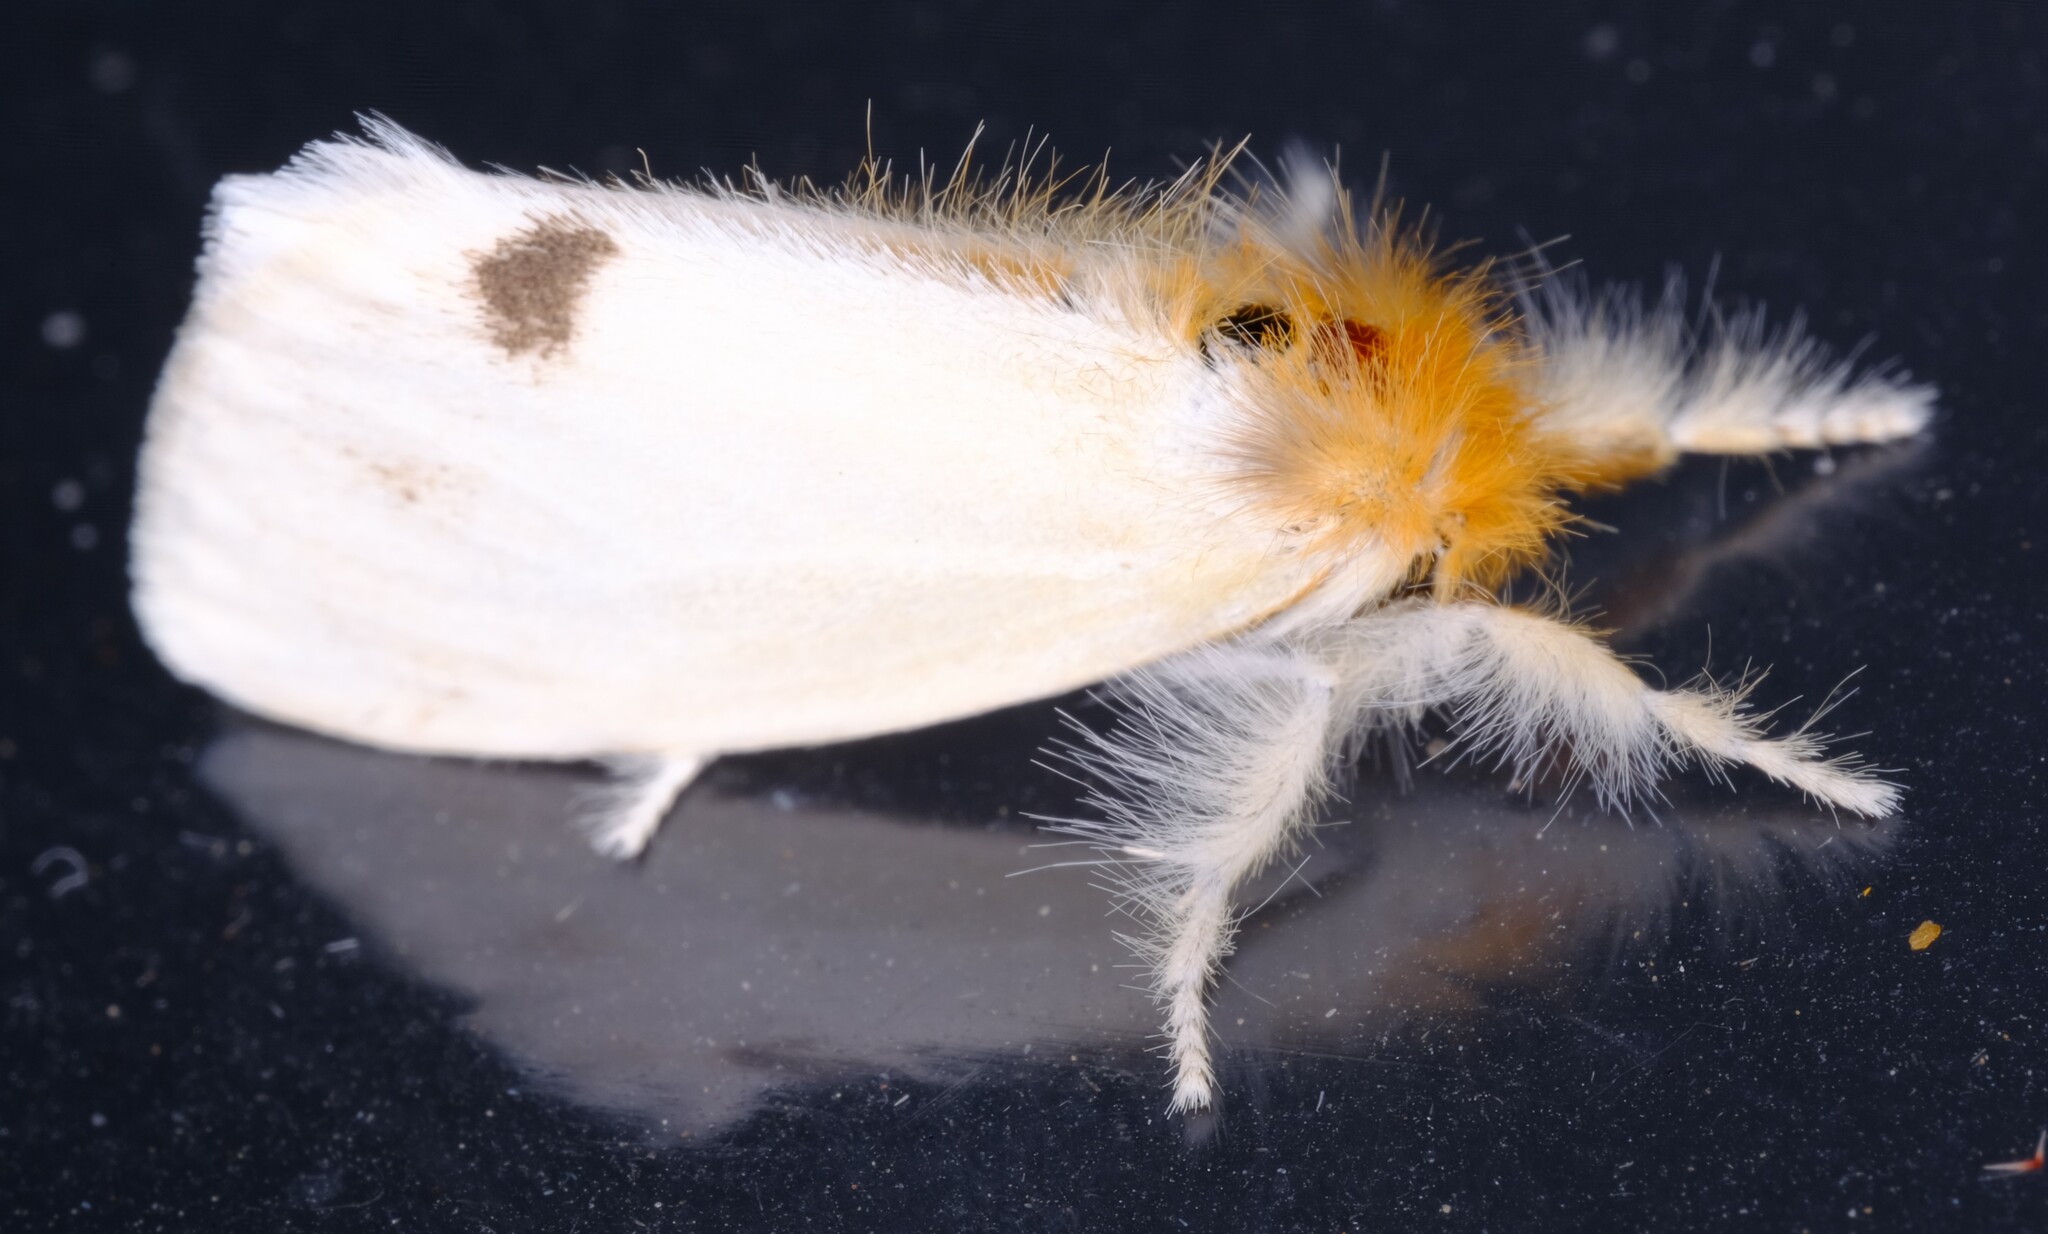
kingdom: Animalia
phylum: Arthropoda
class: Insecta
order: Lepidoptera
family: Erebidae
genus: Acyphas
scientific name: Acyphas semiochrea
